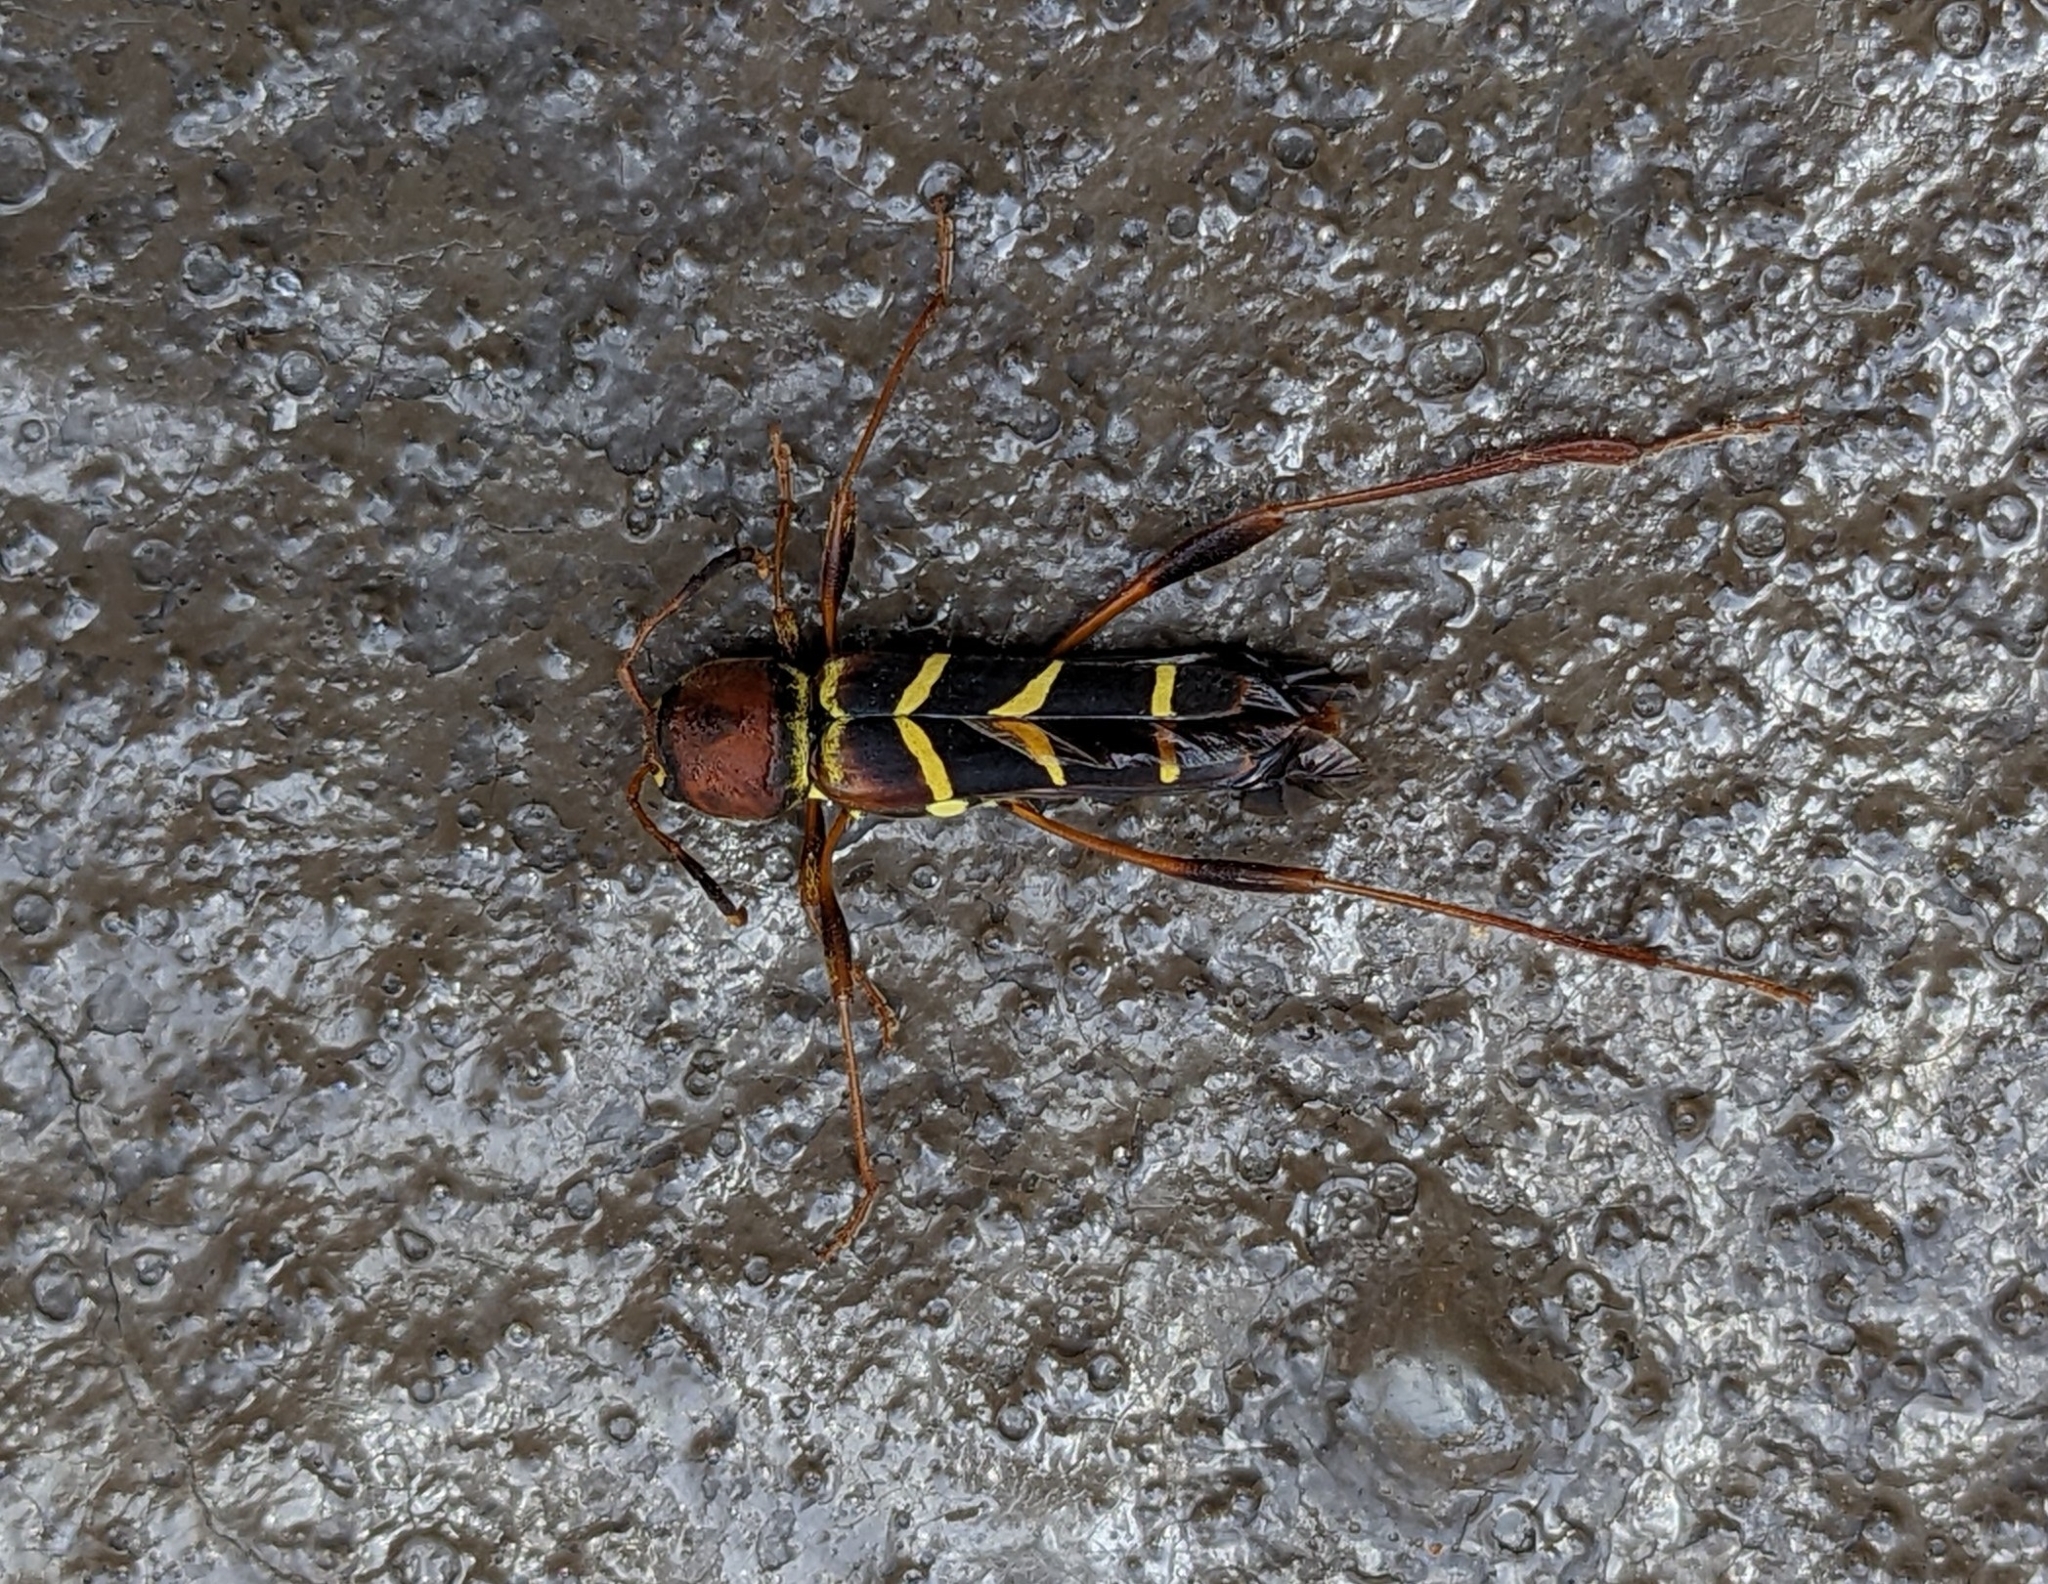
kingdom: Animalia
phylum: Arthropoda
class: Insecta
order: Coleoptera
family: Cerambycidae
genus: Neoclytus
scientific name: Neoclytus acuminatus
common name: Read-headed ash borer
